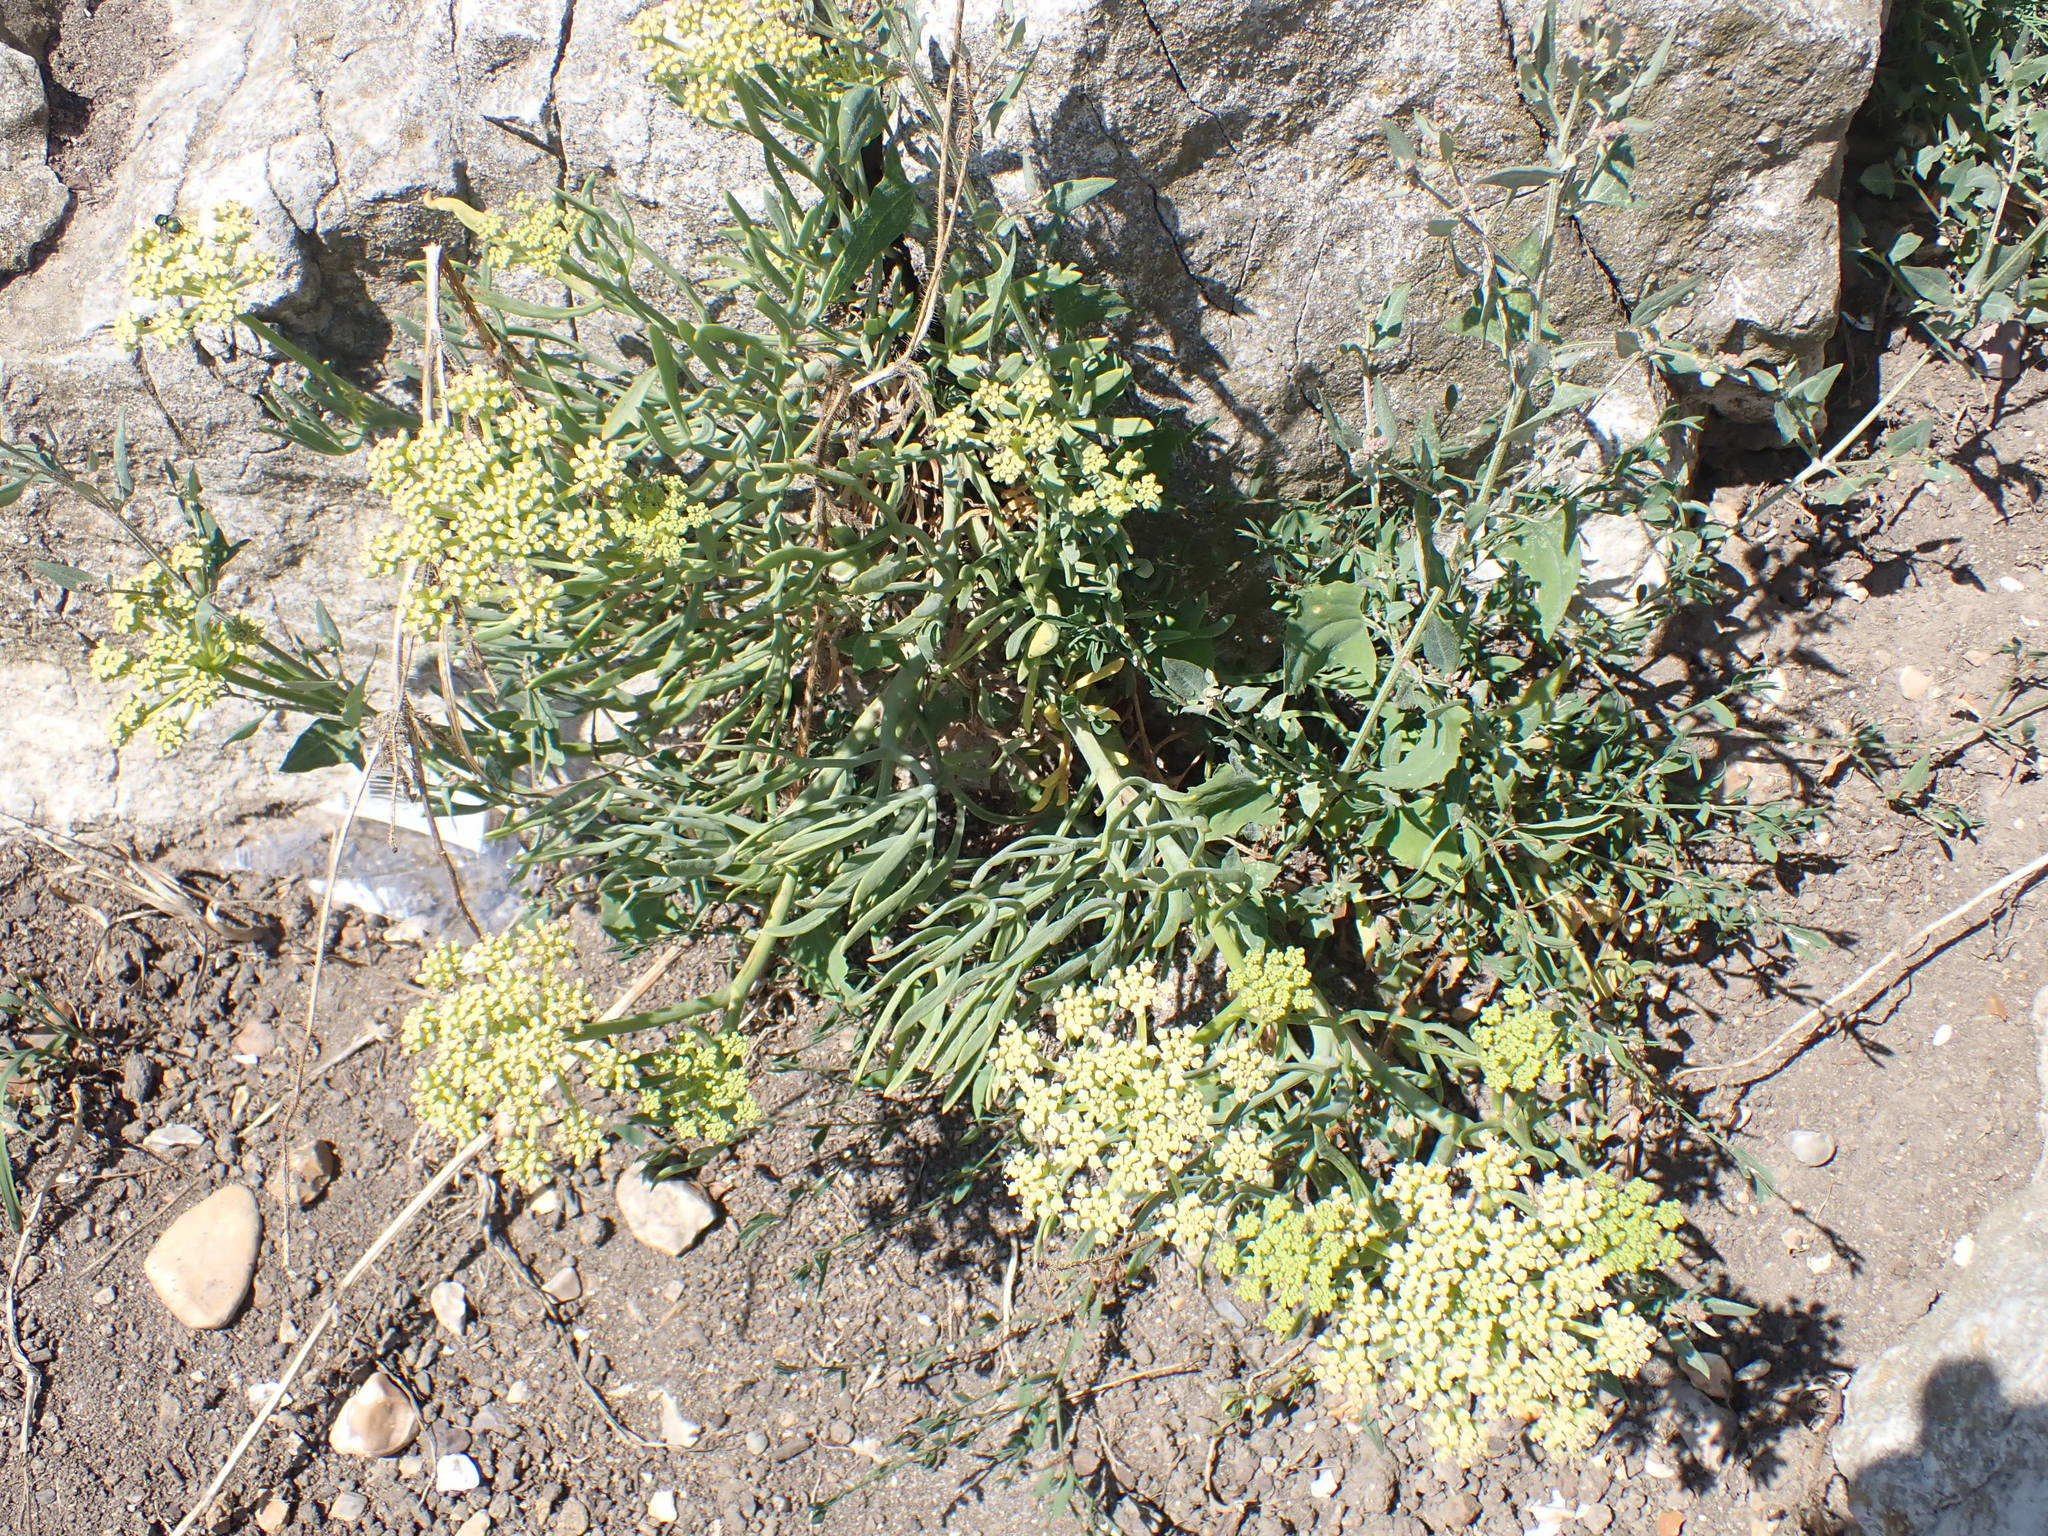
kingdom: Plantae
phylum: Tracheophyta
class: Magnoliopsida
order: Apiales
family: Apiaceae
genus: Crithmum
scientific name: Crithmum maritimum
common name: Rock samphire
